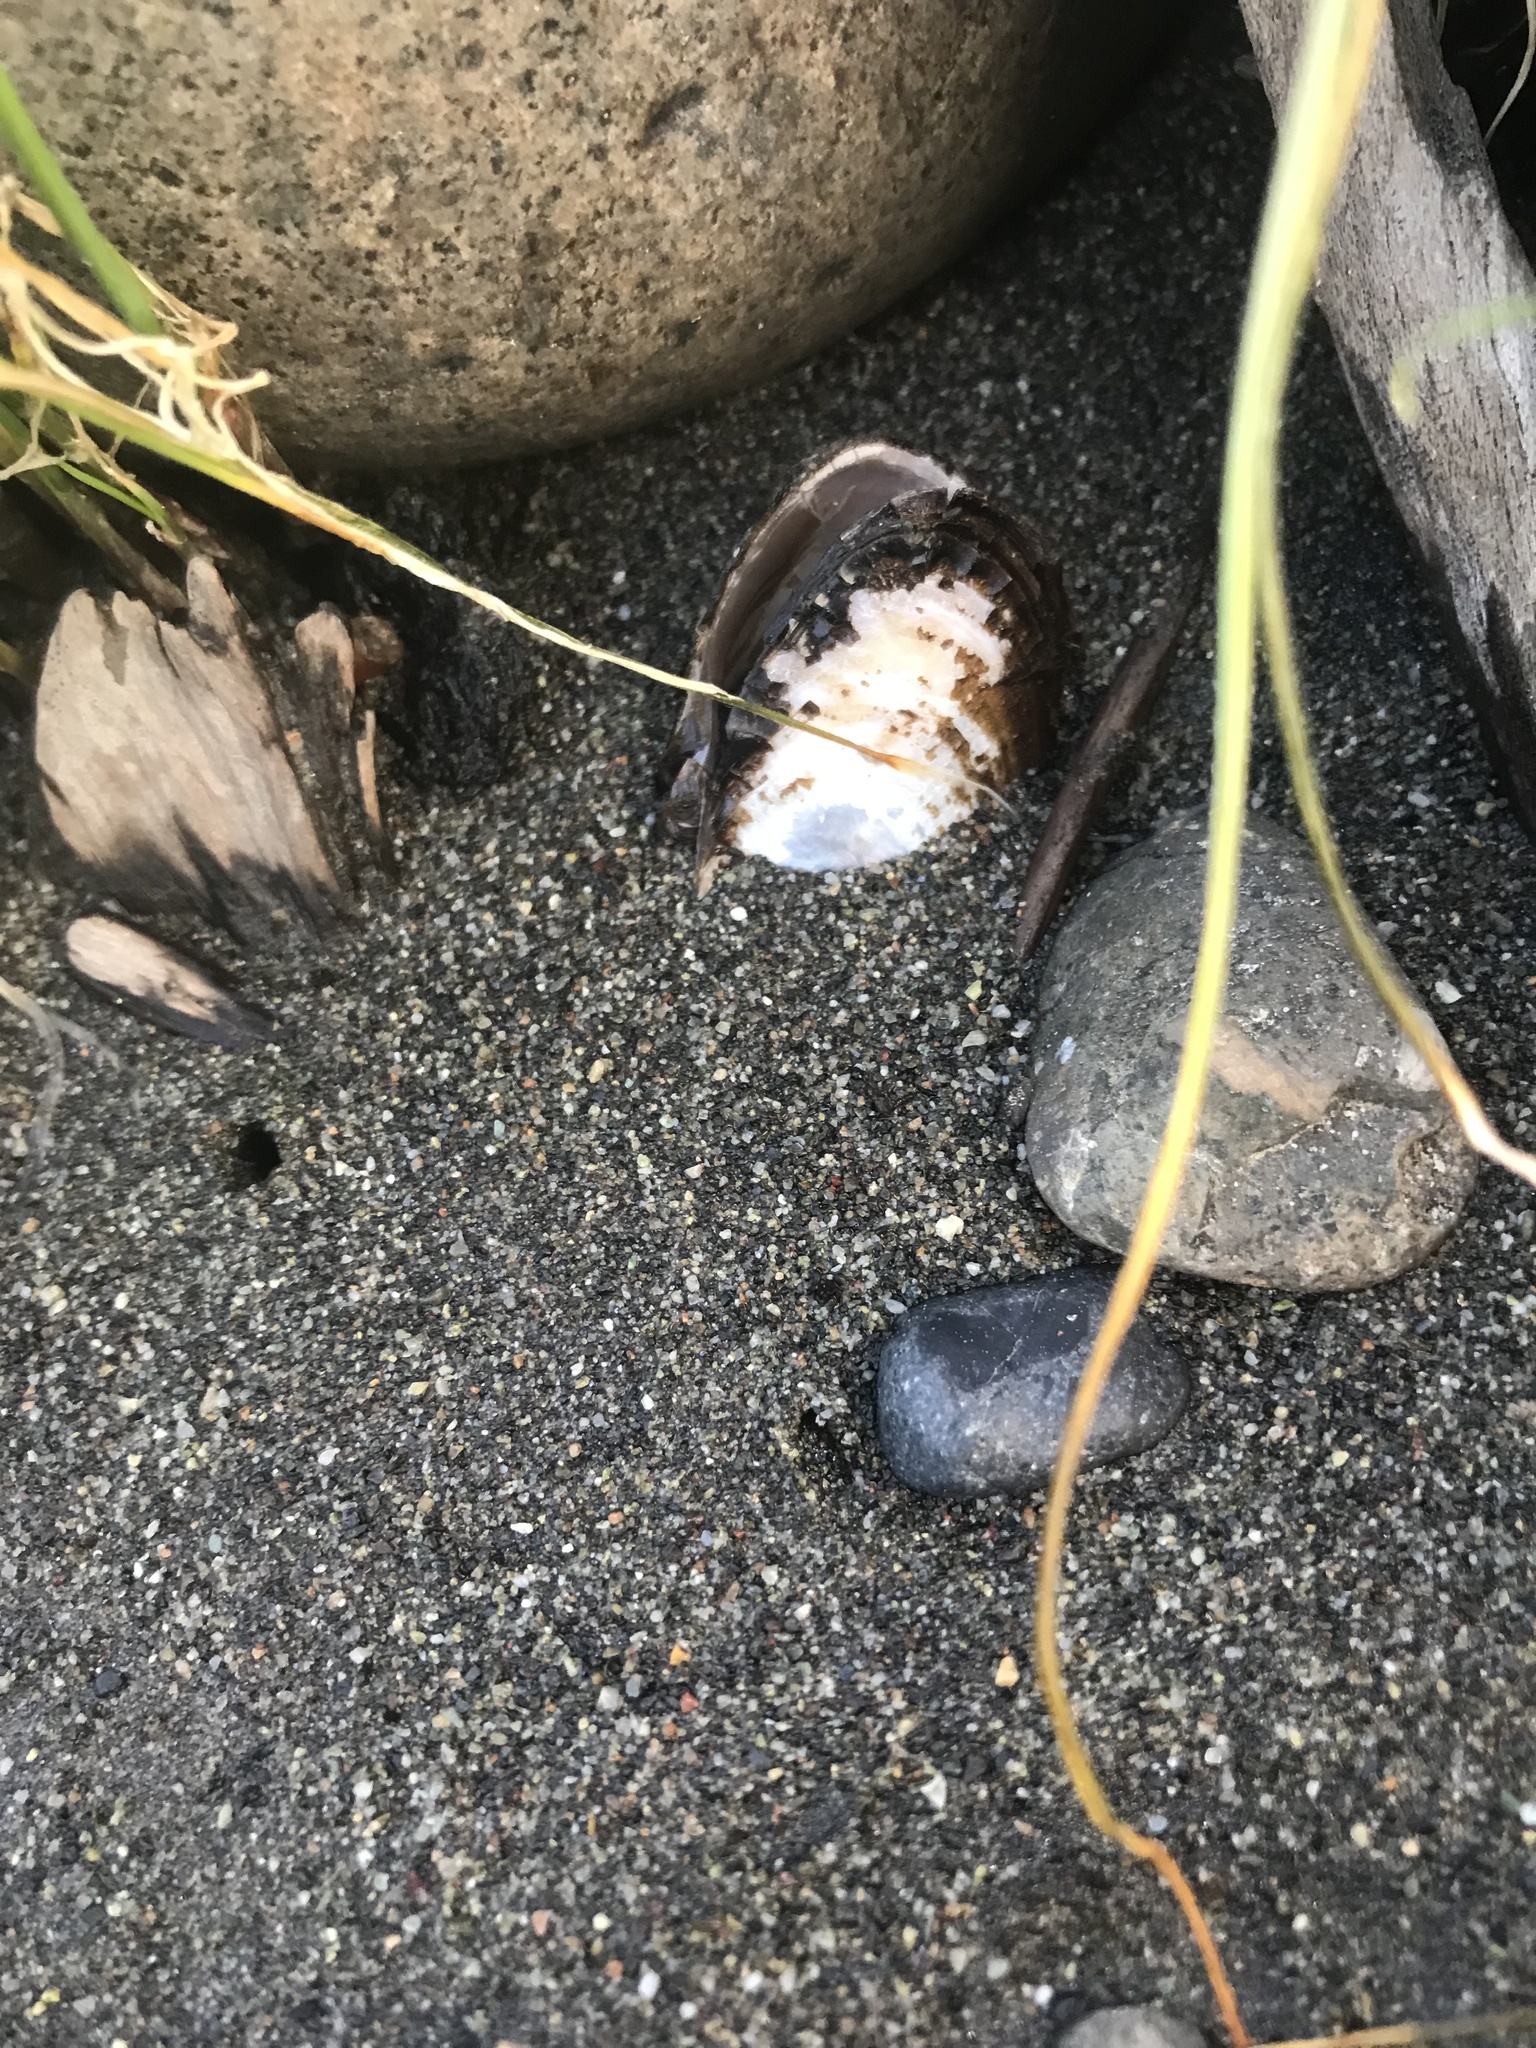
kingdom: Animalia
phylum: Mollusca
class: Bivalvia
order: Unionida
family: Margaritiferidae
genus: Margaritifera
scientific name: Margaritifera falcata
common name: Western pearlshell
